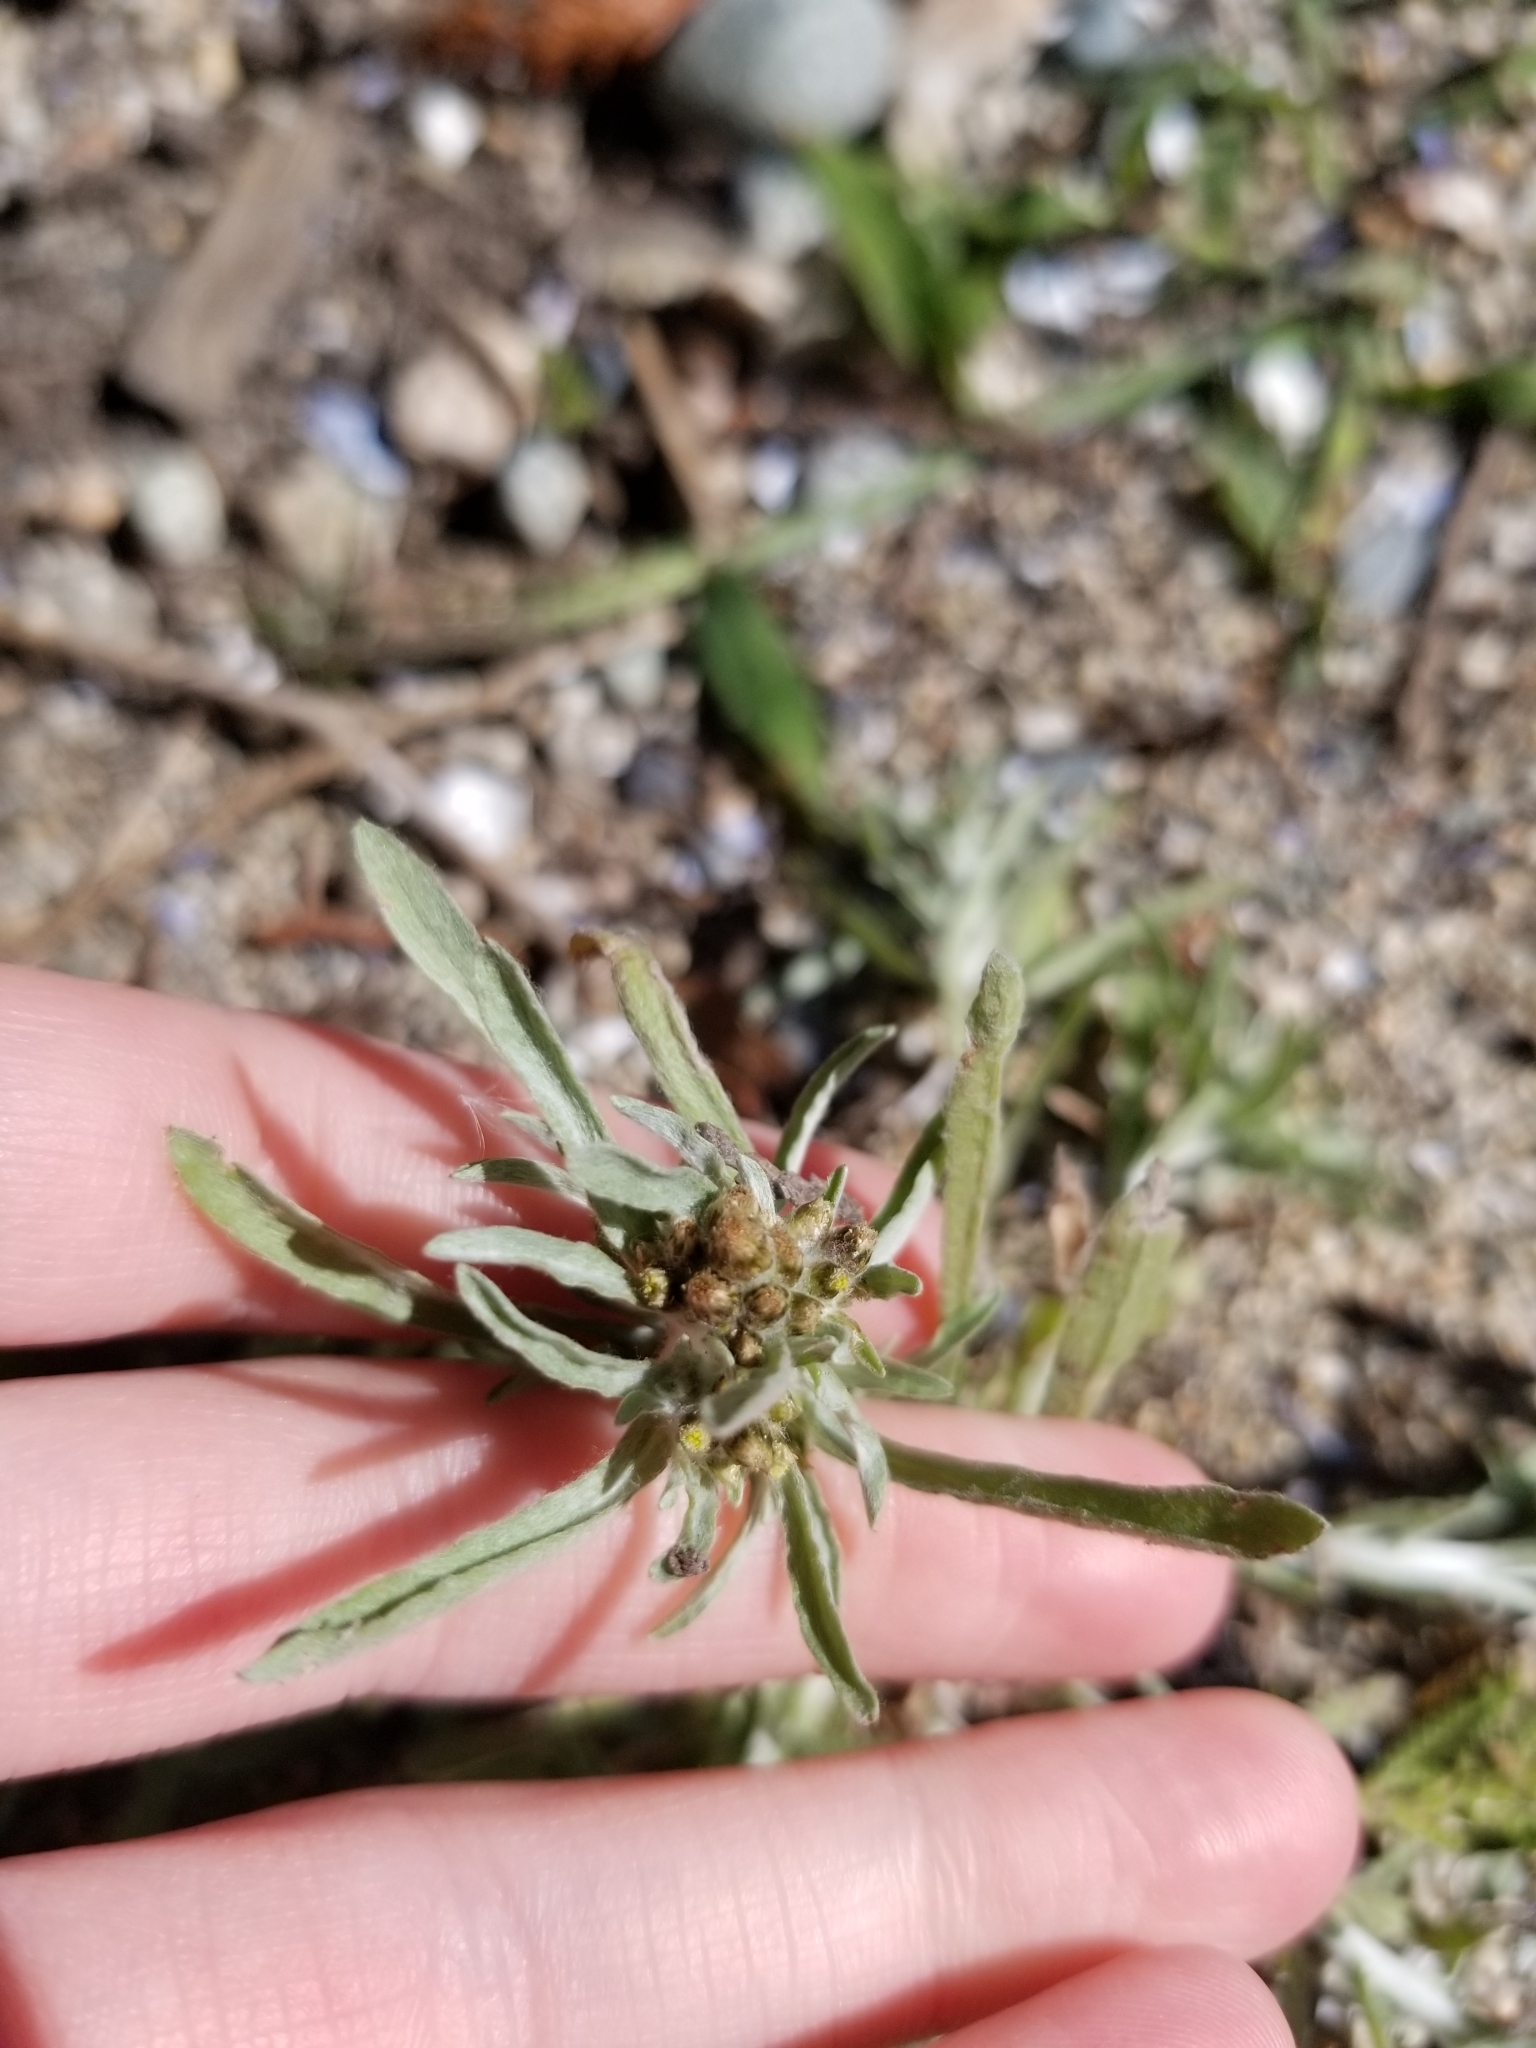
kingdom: Plantae
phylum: Tracheophyta
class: Magnoliopsida
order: Asterales
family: Asteraceae
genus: Gnaphalium
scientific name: Gnaphalium uliginosum
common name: Marsh cudweed
